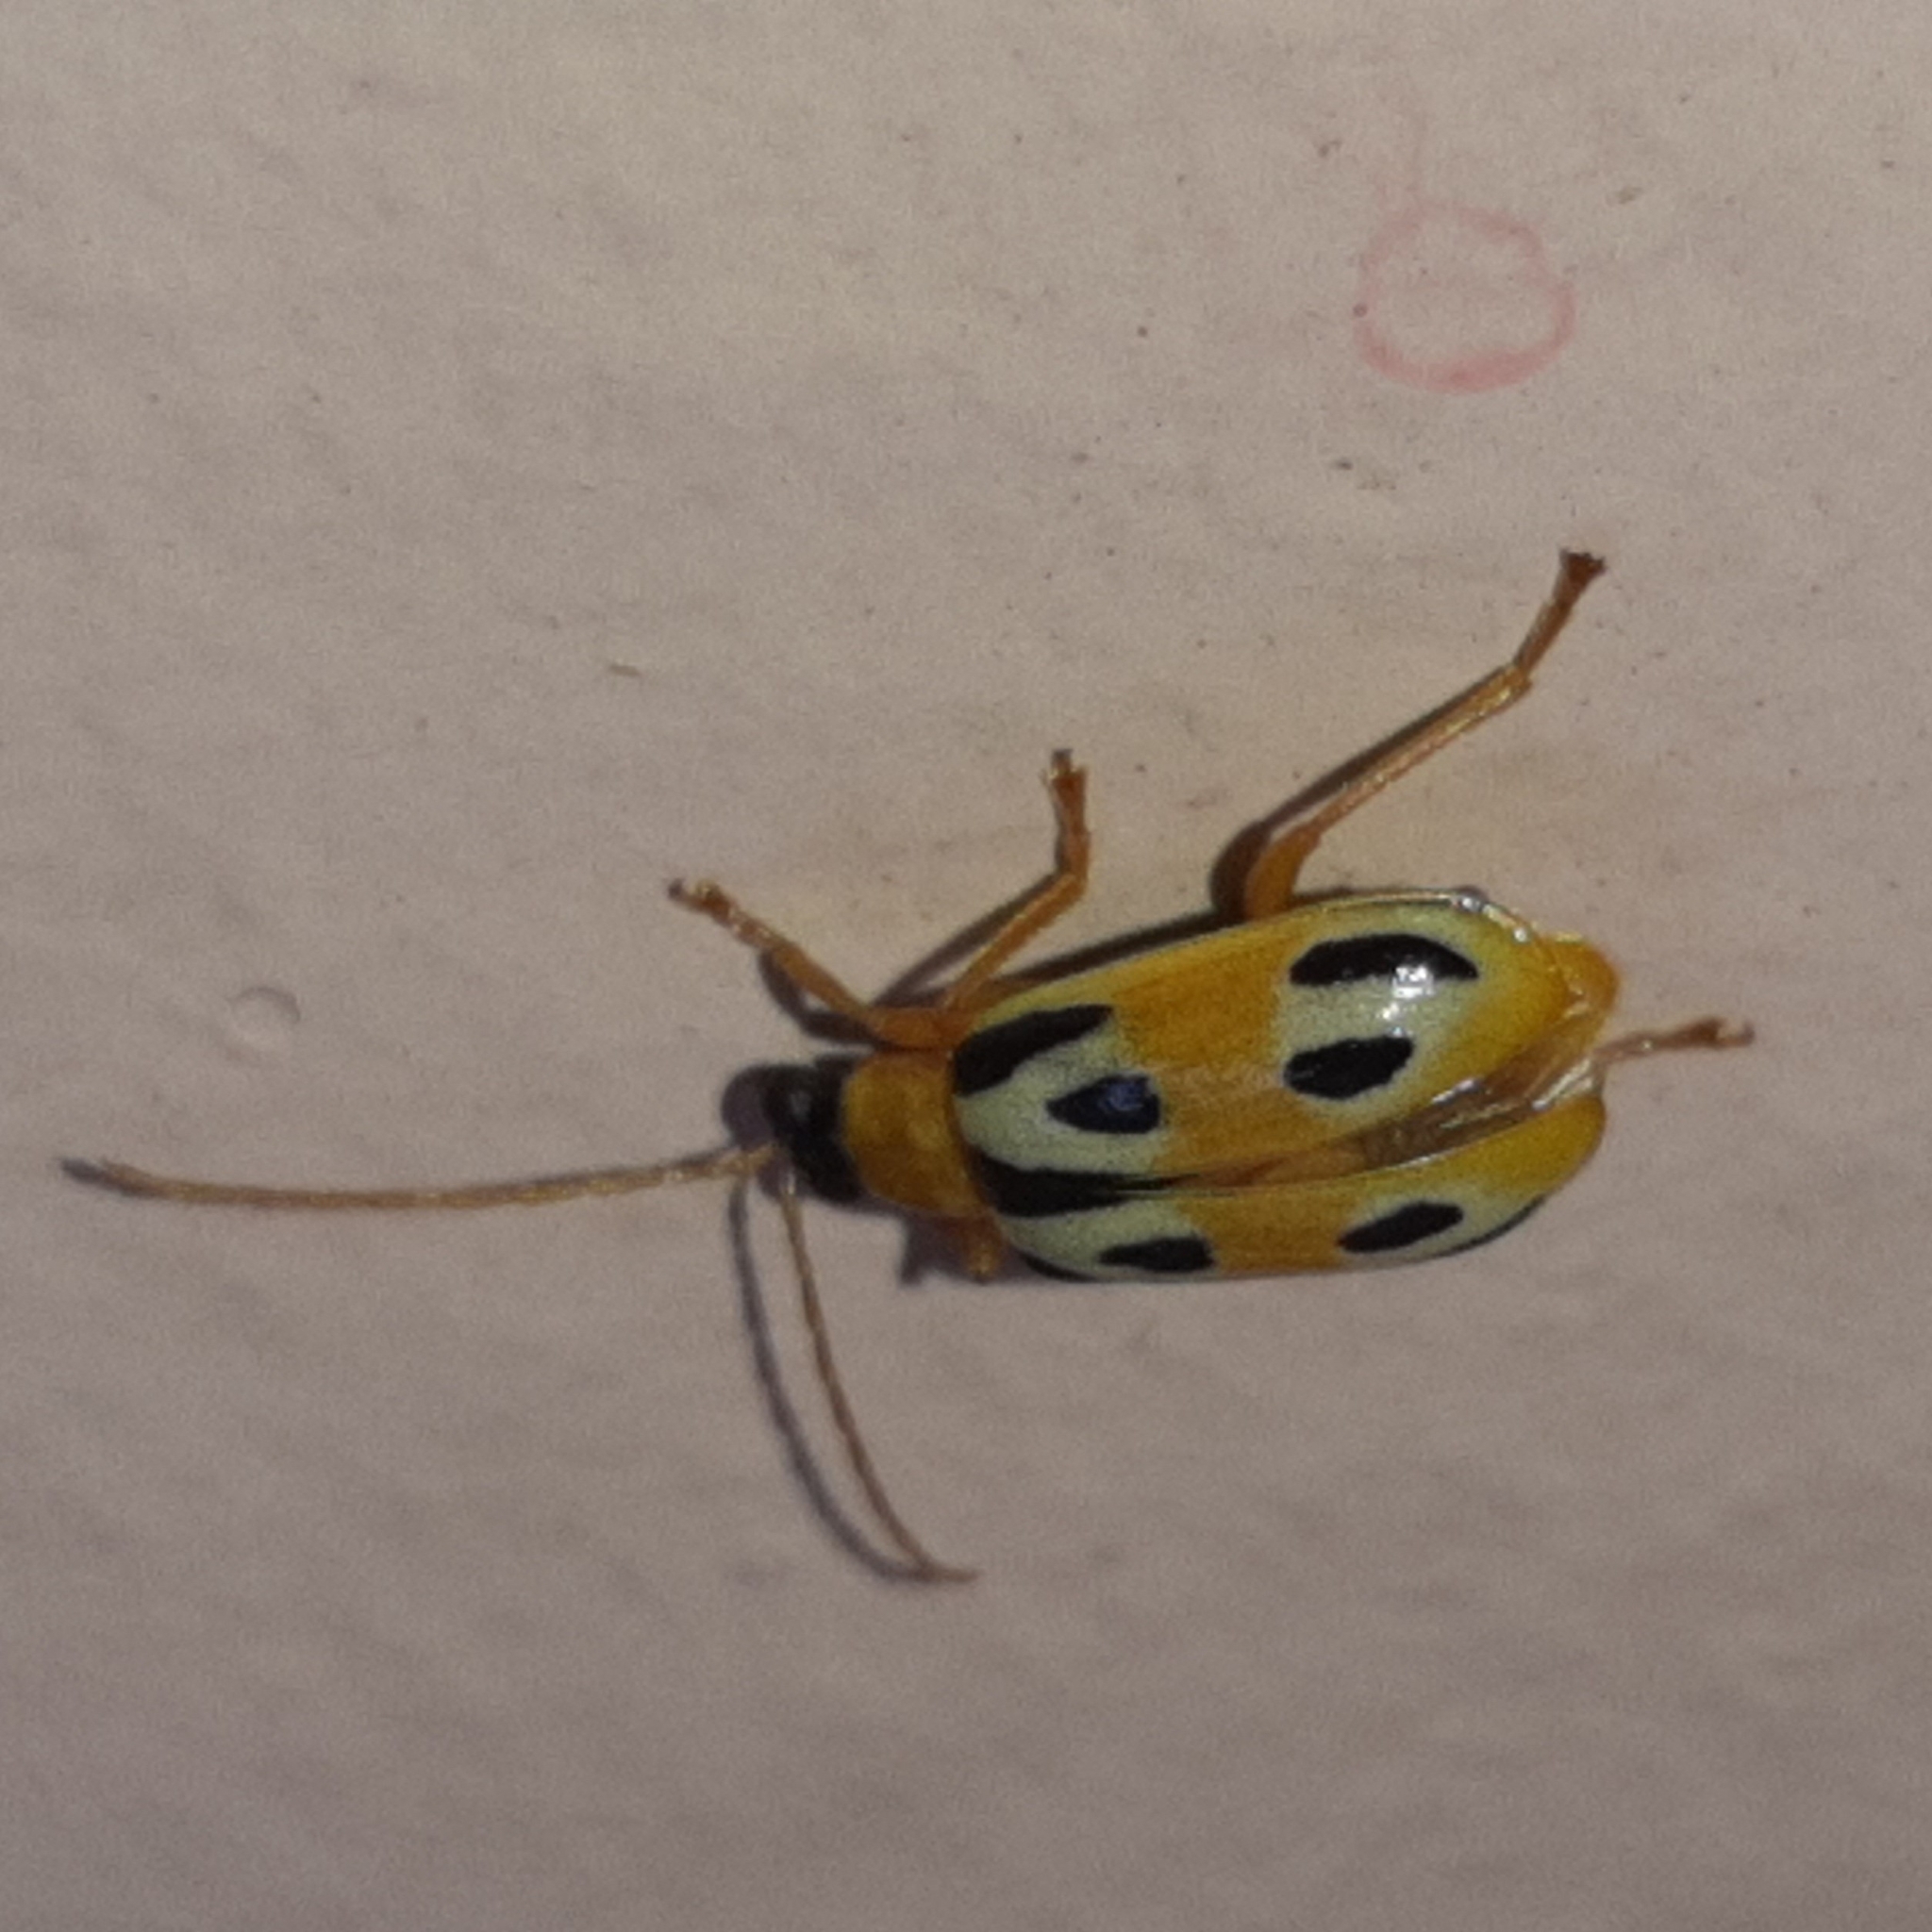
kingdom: Animalia
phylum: Arthropoda
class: Insecta
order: Coleoptera
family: Chrysomelidae
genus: Diabrotica
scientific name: Diabrotica
